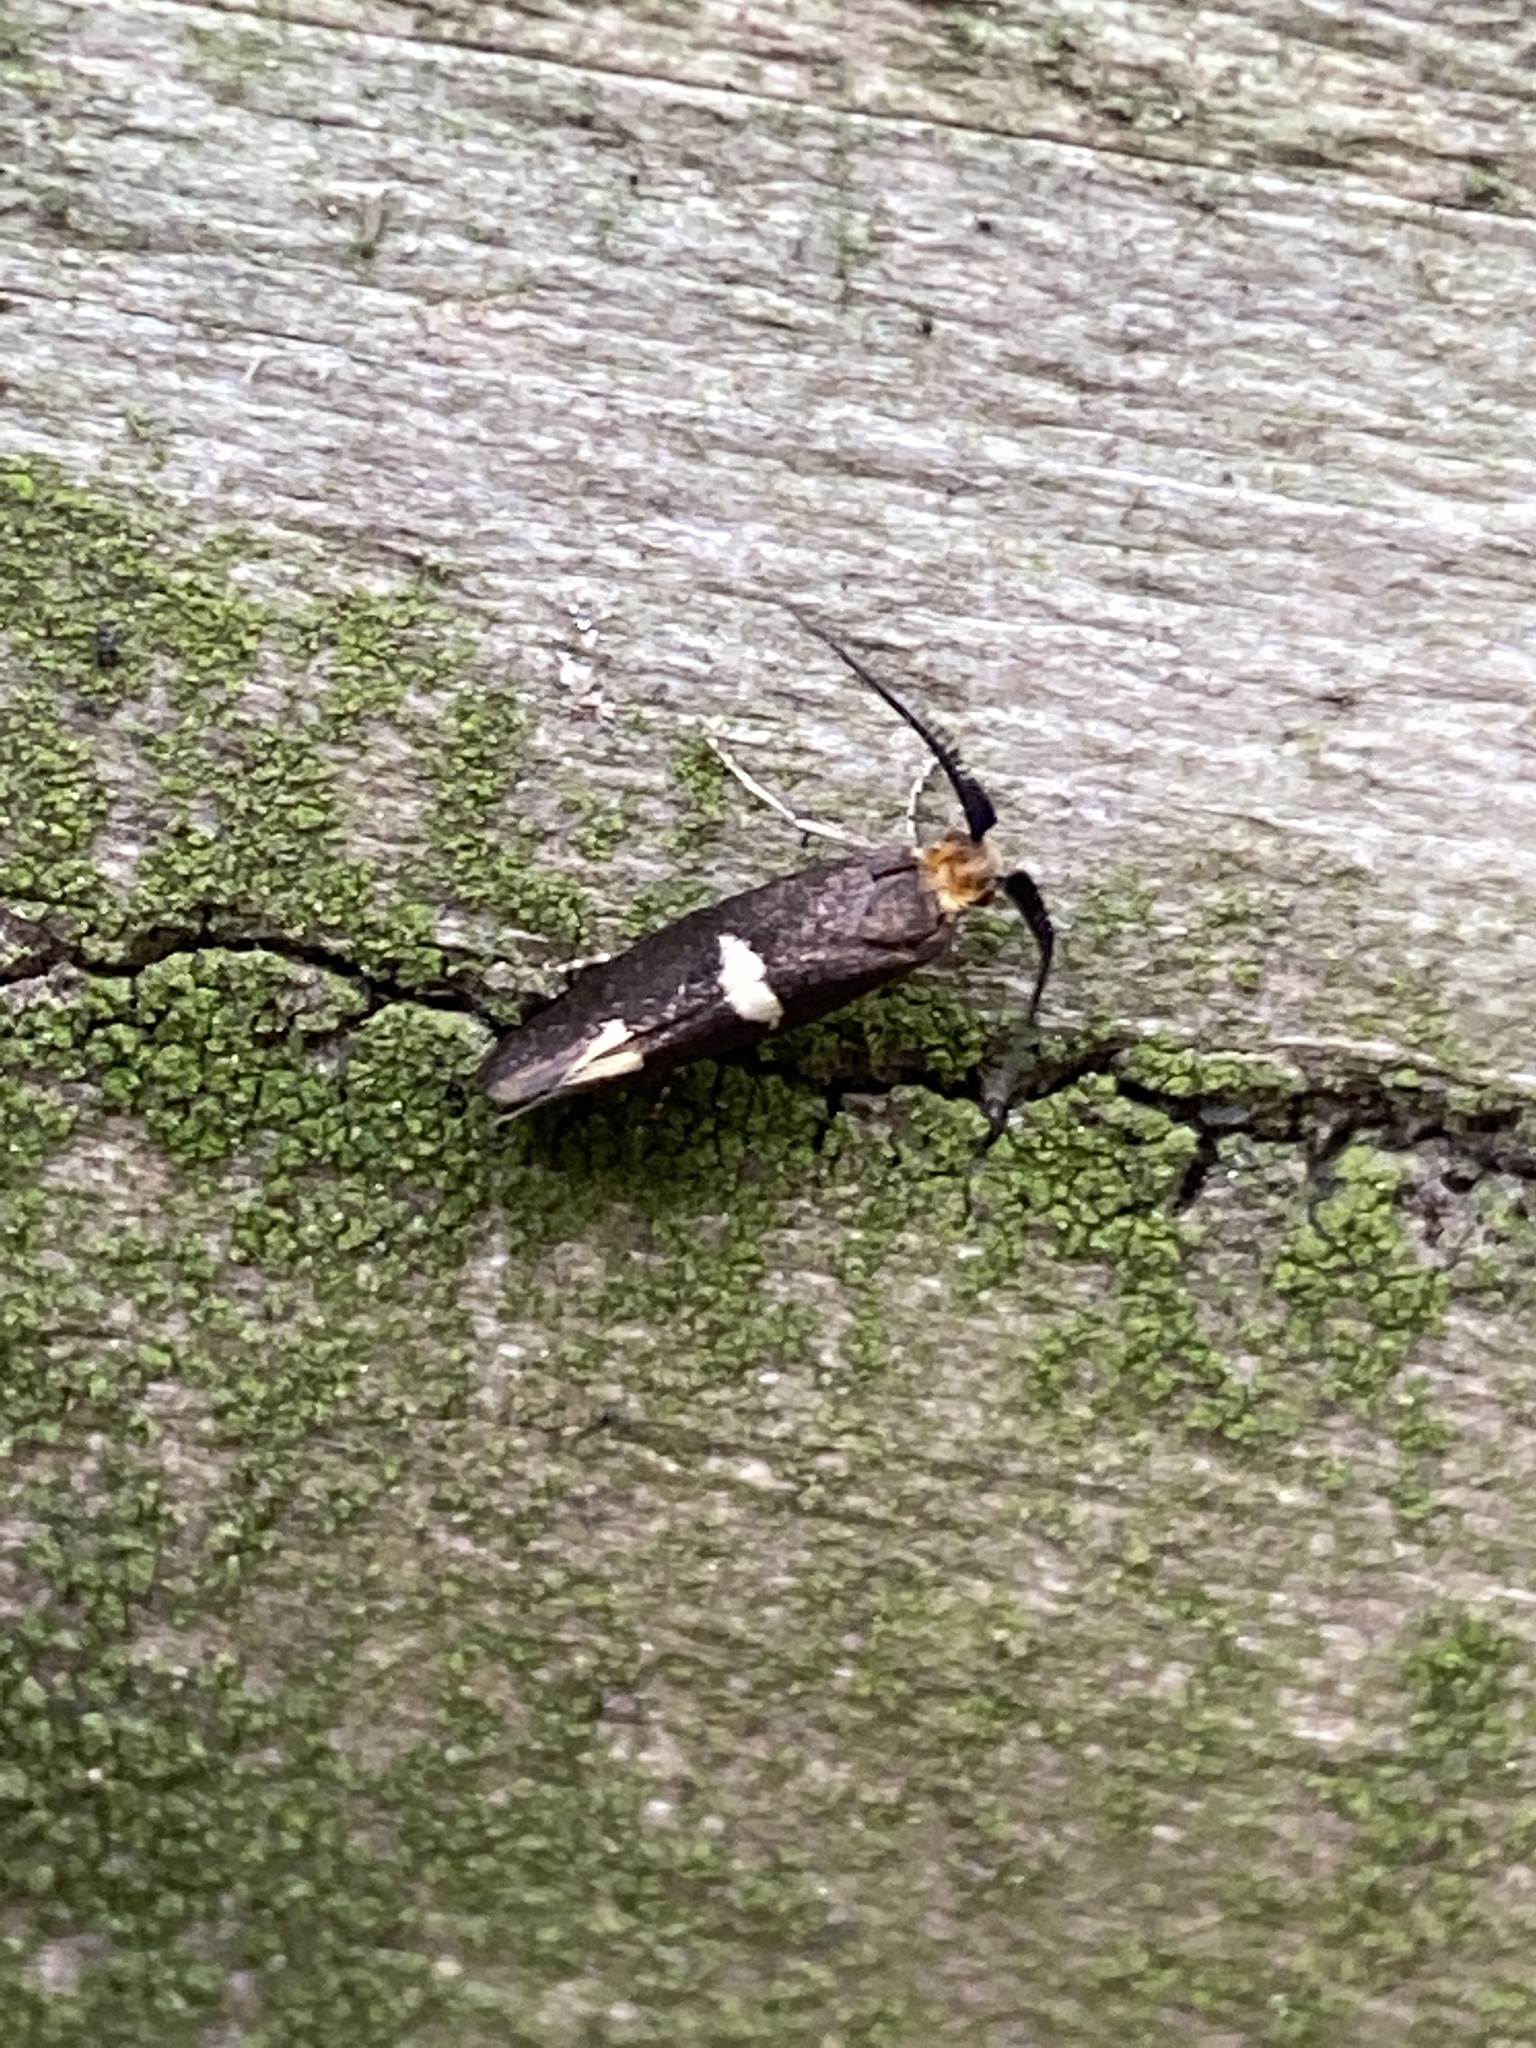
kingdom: Animalia
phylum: Arthropoda
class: Insecta
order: Lepidoptera
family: Incurvariidae
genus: Incurvaria
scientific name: Incurvaria masculella
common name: Feathered leaf-cutter
